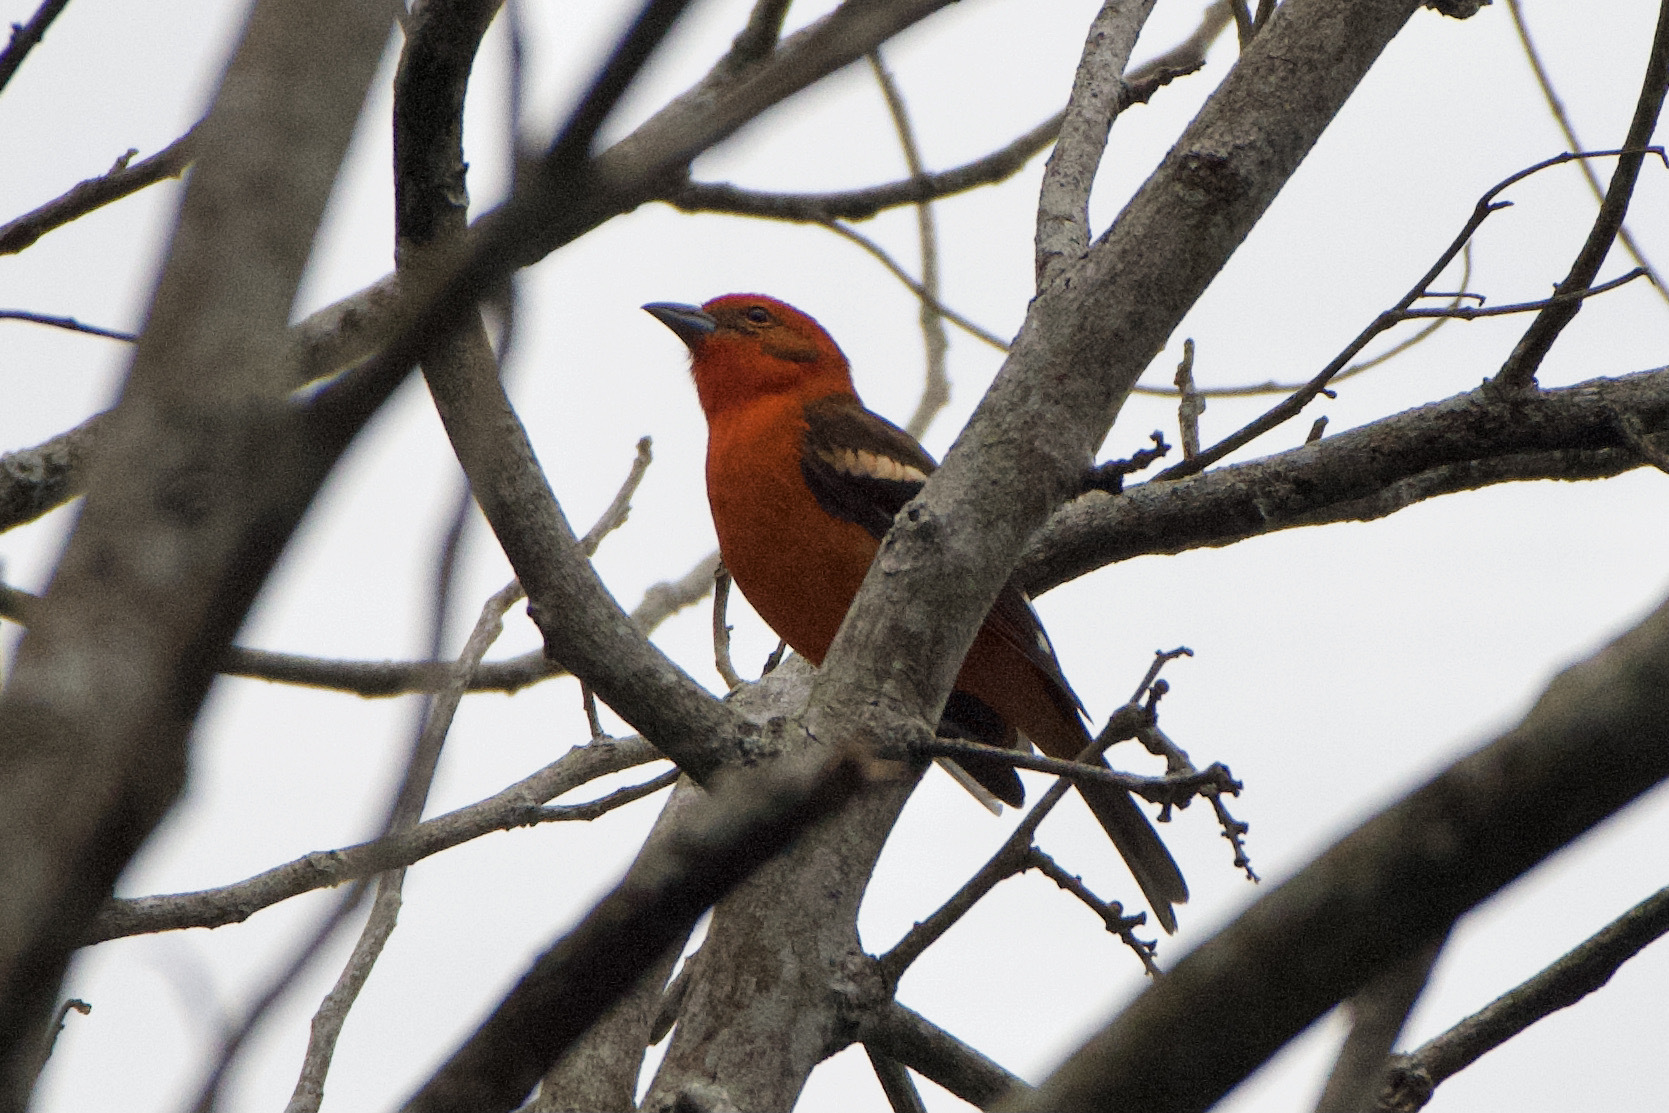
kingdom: Animalia
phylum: Chordata
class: Aves
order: Passeriformes
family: Cardinalidae
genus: Piranga
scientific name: Piranga bidentata
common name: Flame-colored tanager
